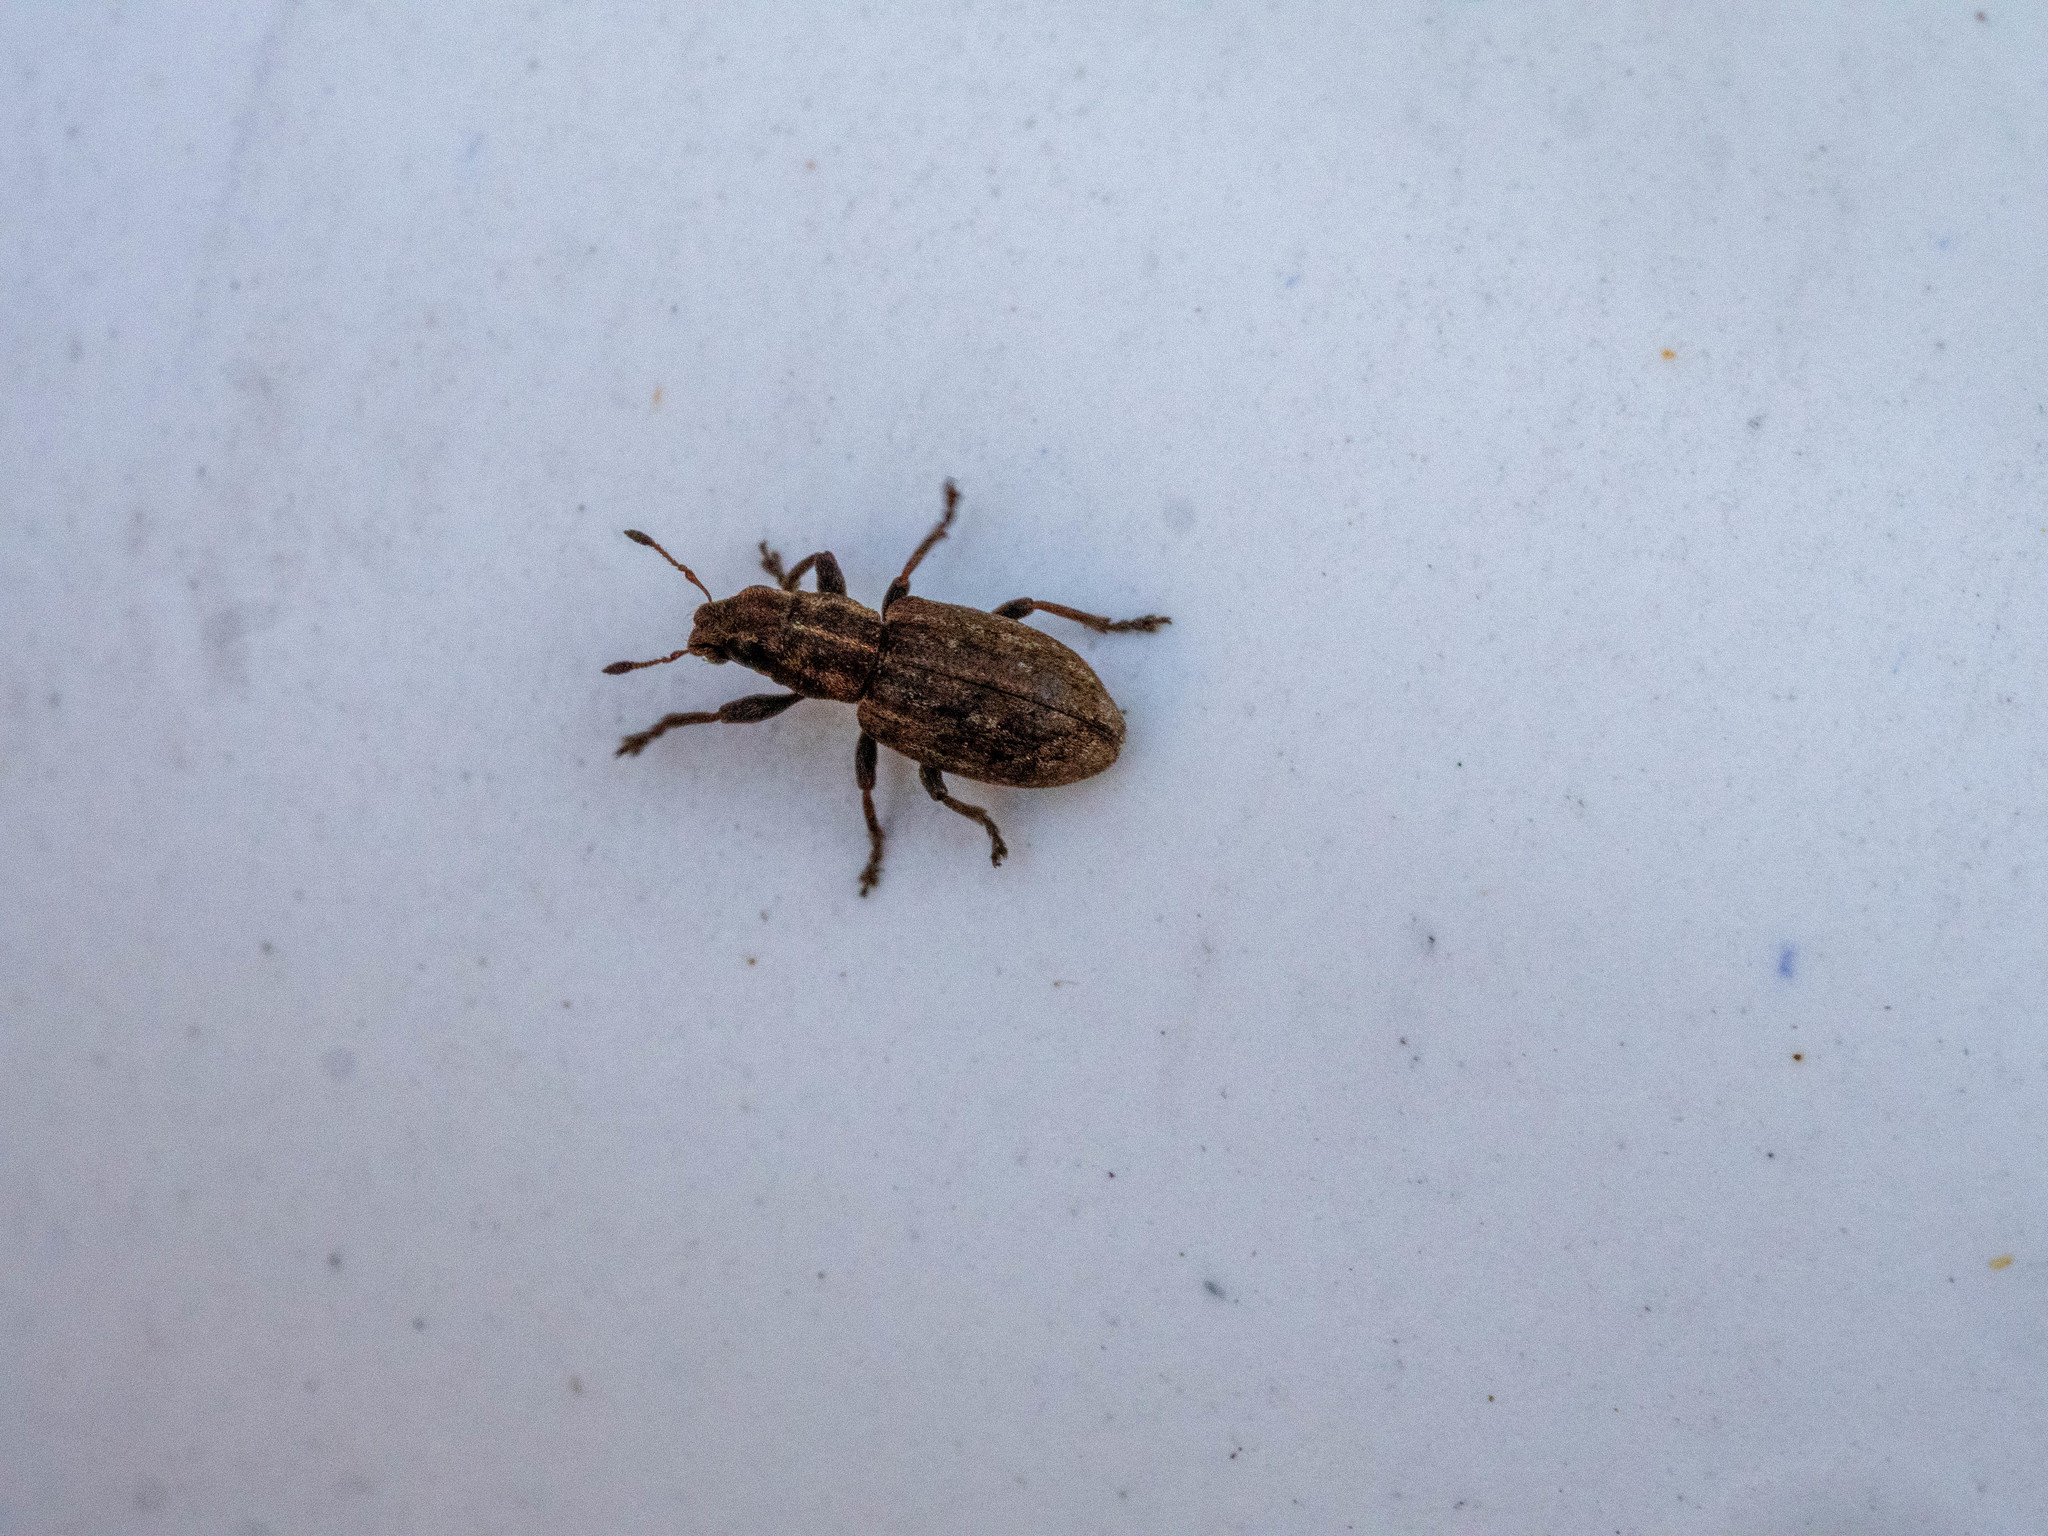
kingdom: Animalia
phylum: Arthropoda
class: Insecta
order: Coleoptera
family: Curculionidae
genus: Sitona
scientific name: Sitona obsoletus
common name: Weevil
